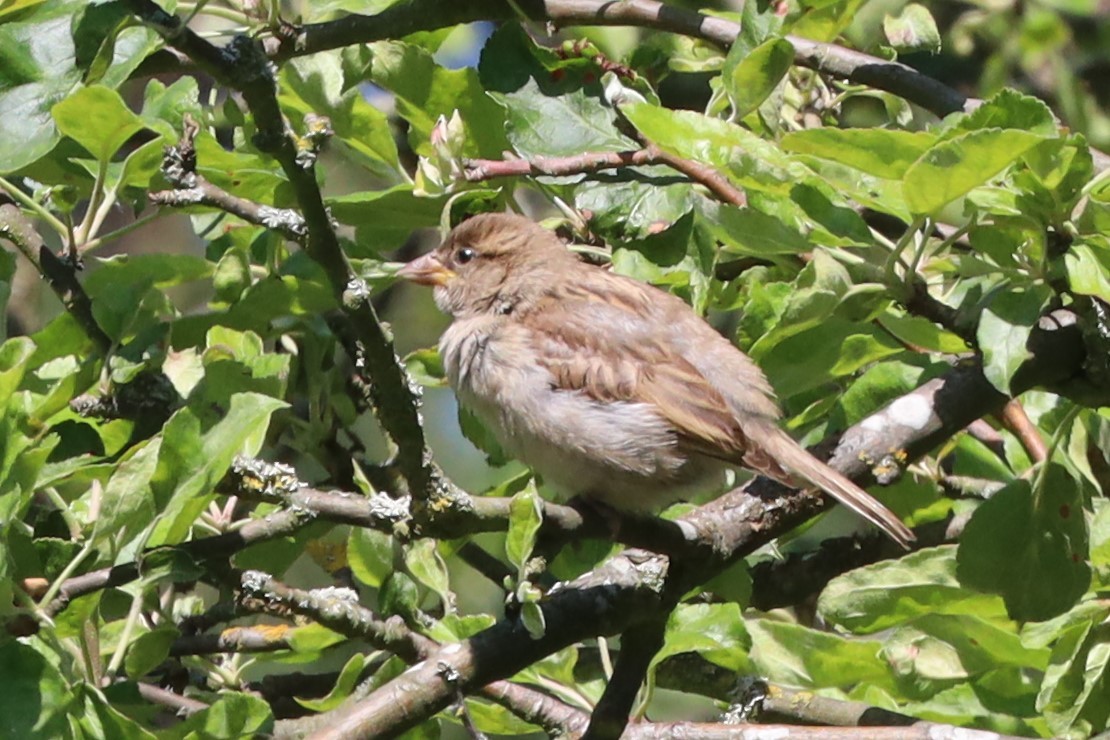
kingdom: Animalia
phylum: Chordata
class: Aves
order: Passeriformes
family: Passeridae
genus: Passer
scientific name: Passer domesticus
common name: House sparrow
